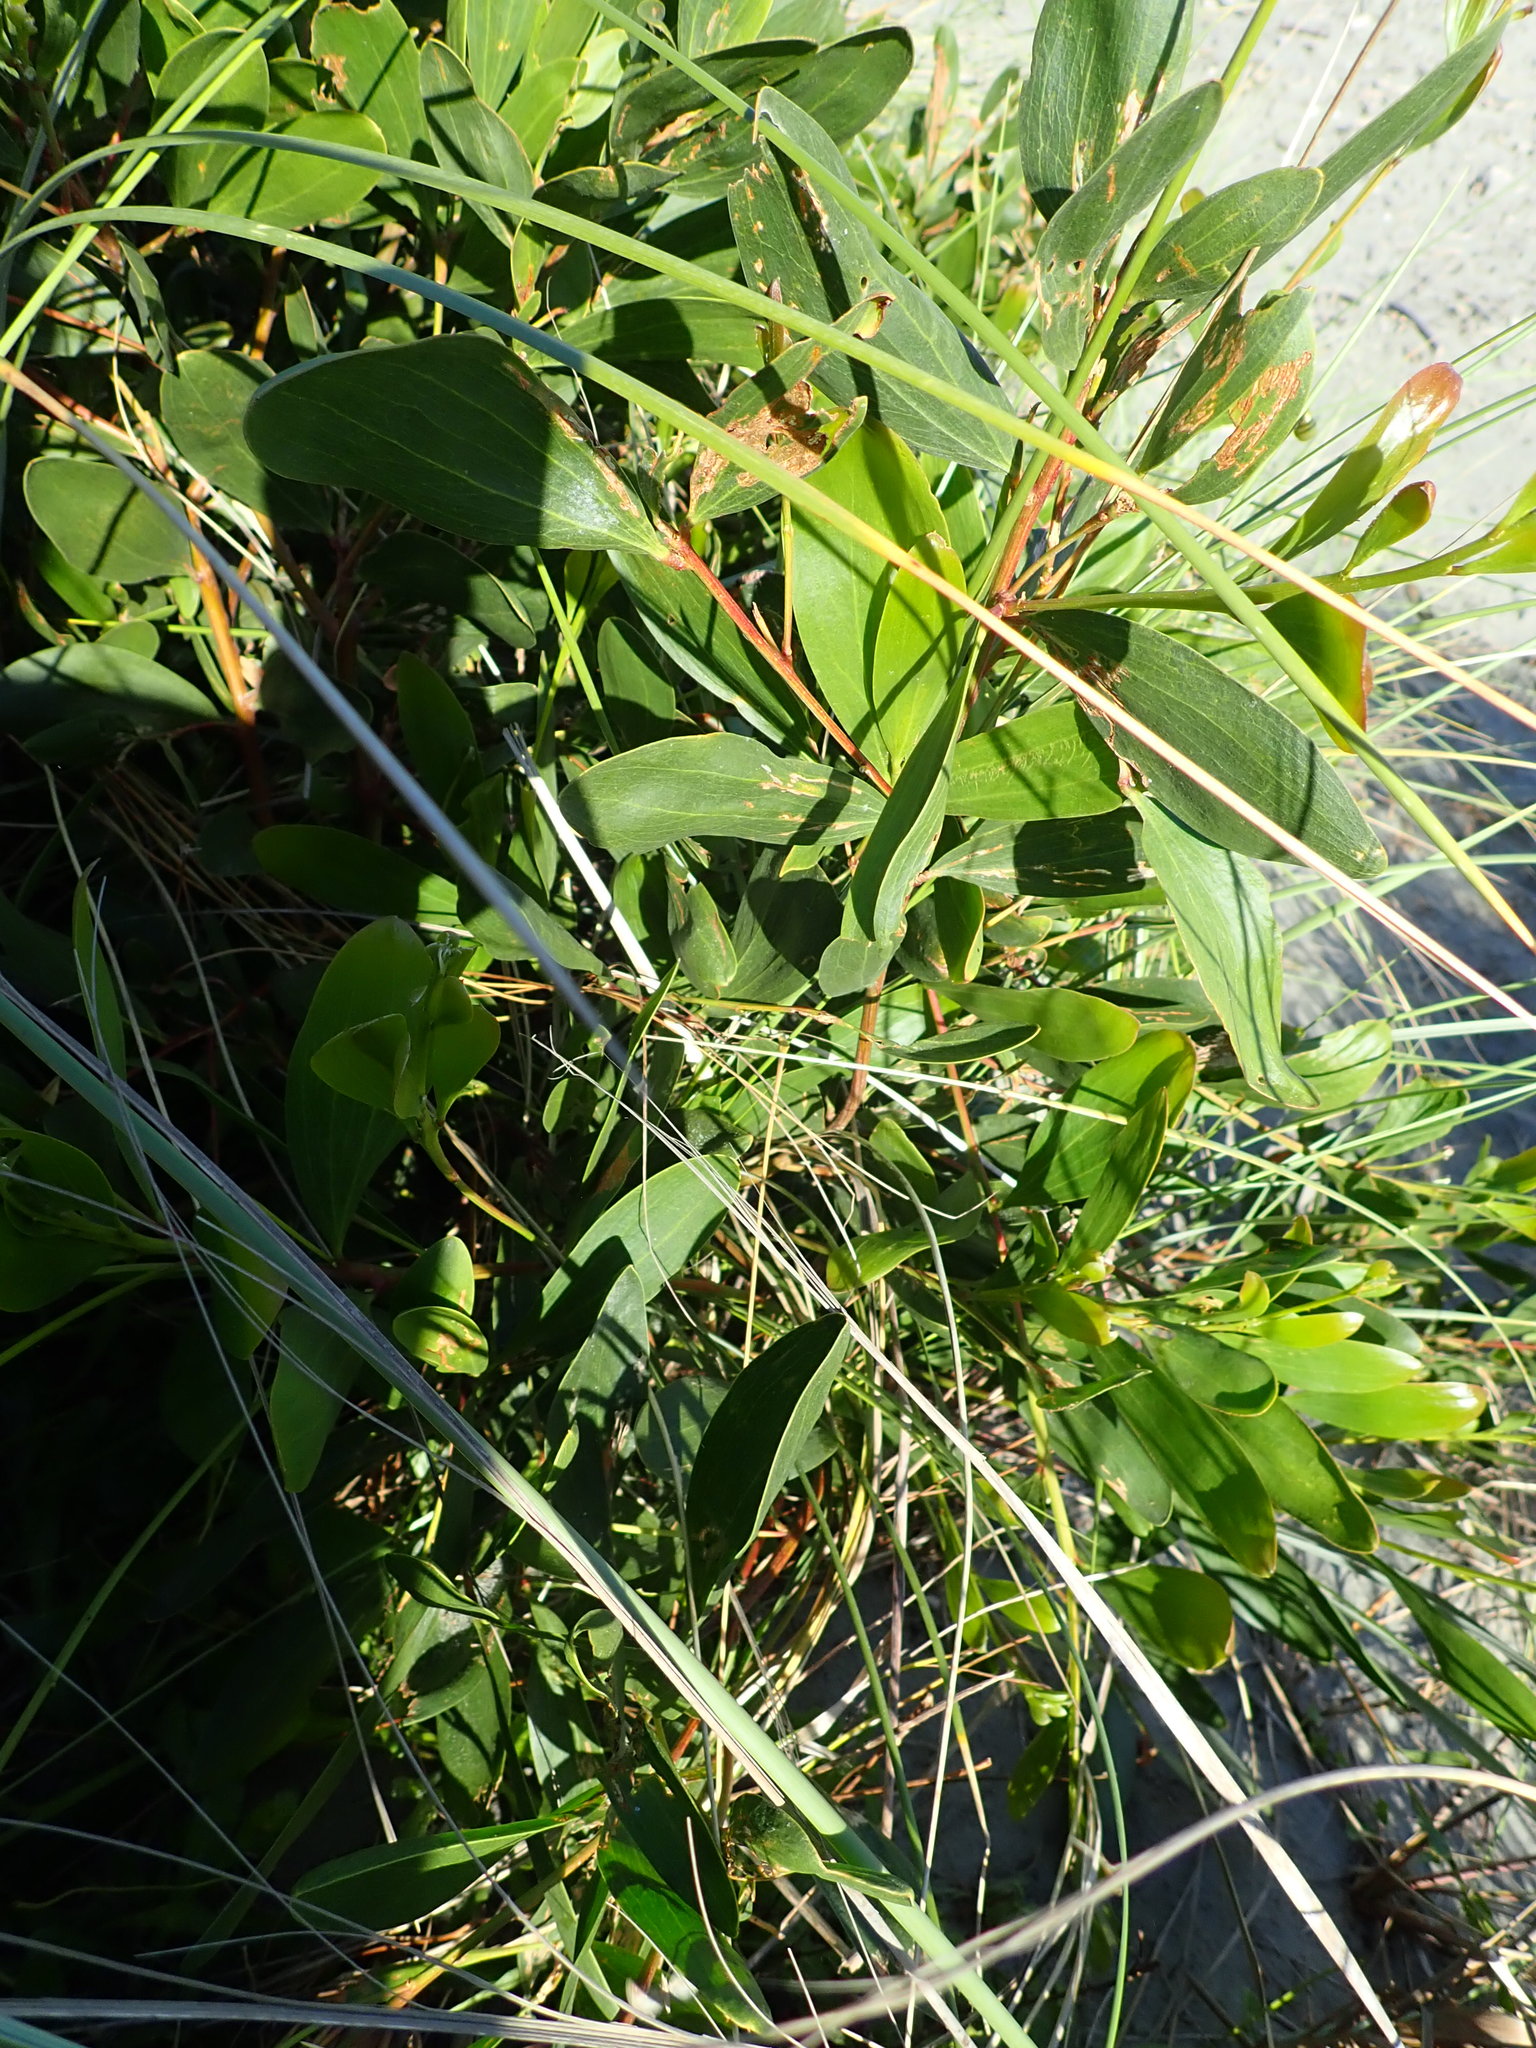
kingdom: Plantae
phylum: Tracheophyta
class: Magnoliopsida
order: Fabales
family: Fabaceae
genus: Acacia
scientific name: Acacia longifolia
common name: Sydney golden wattle
